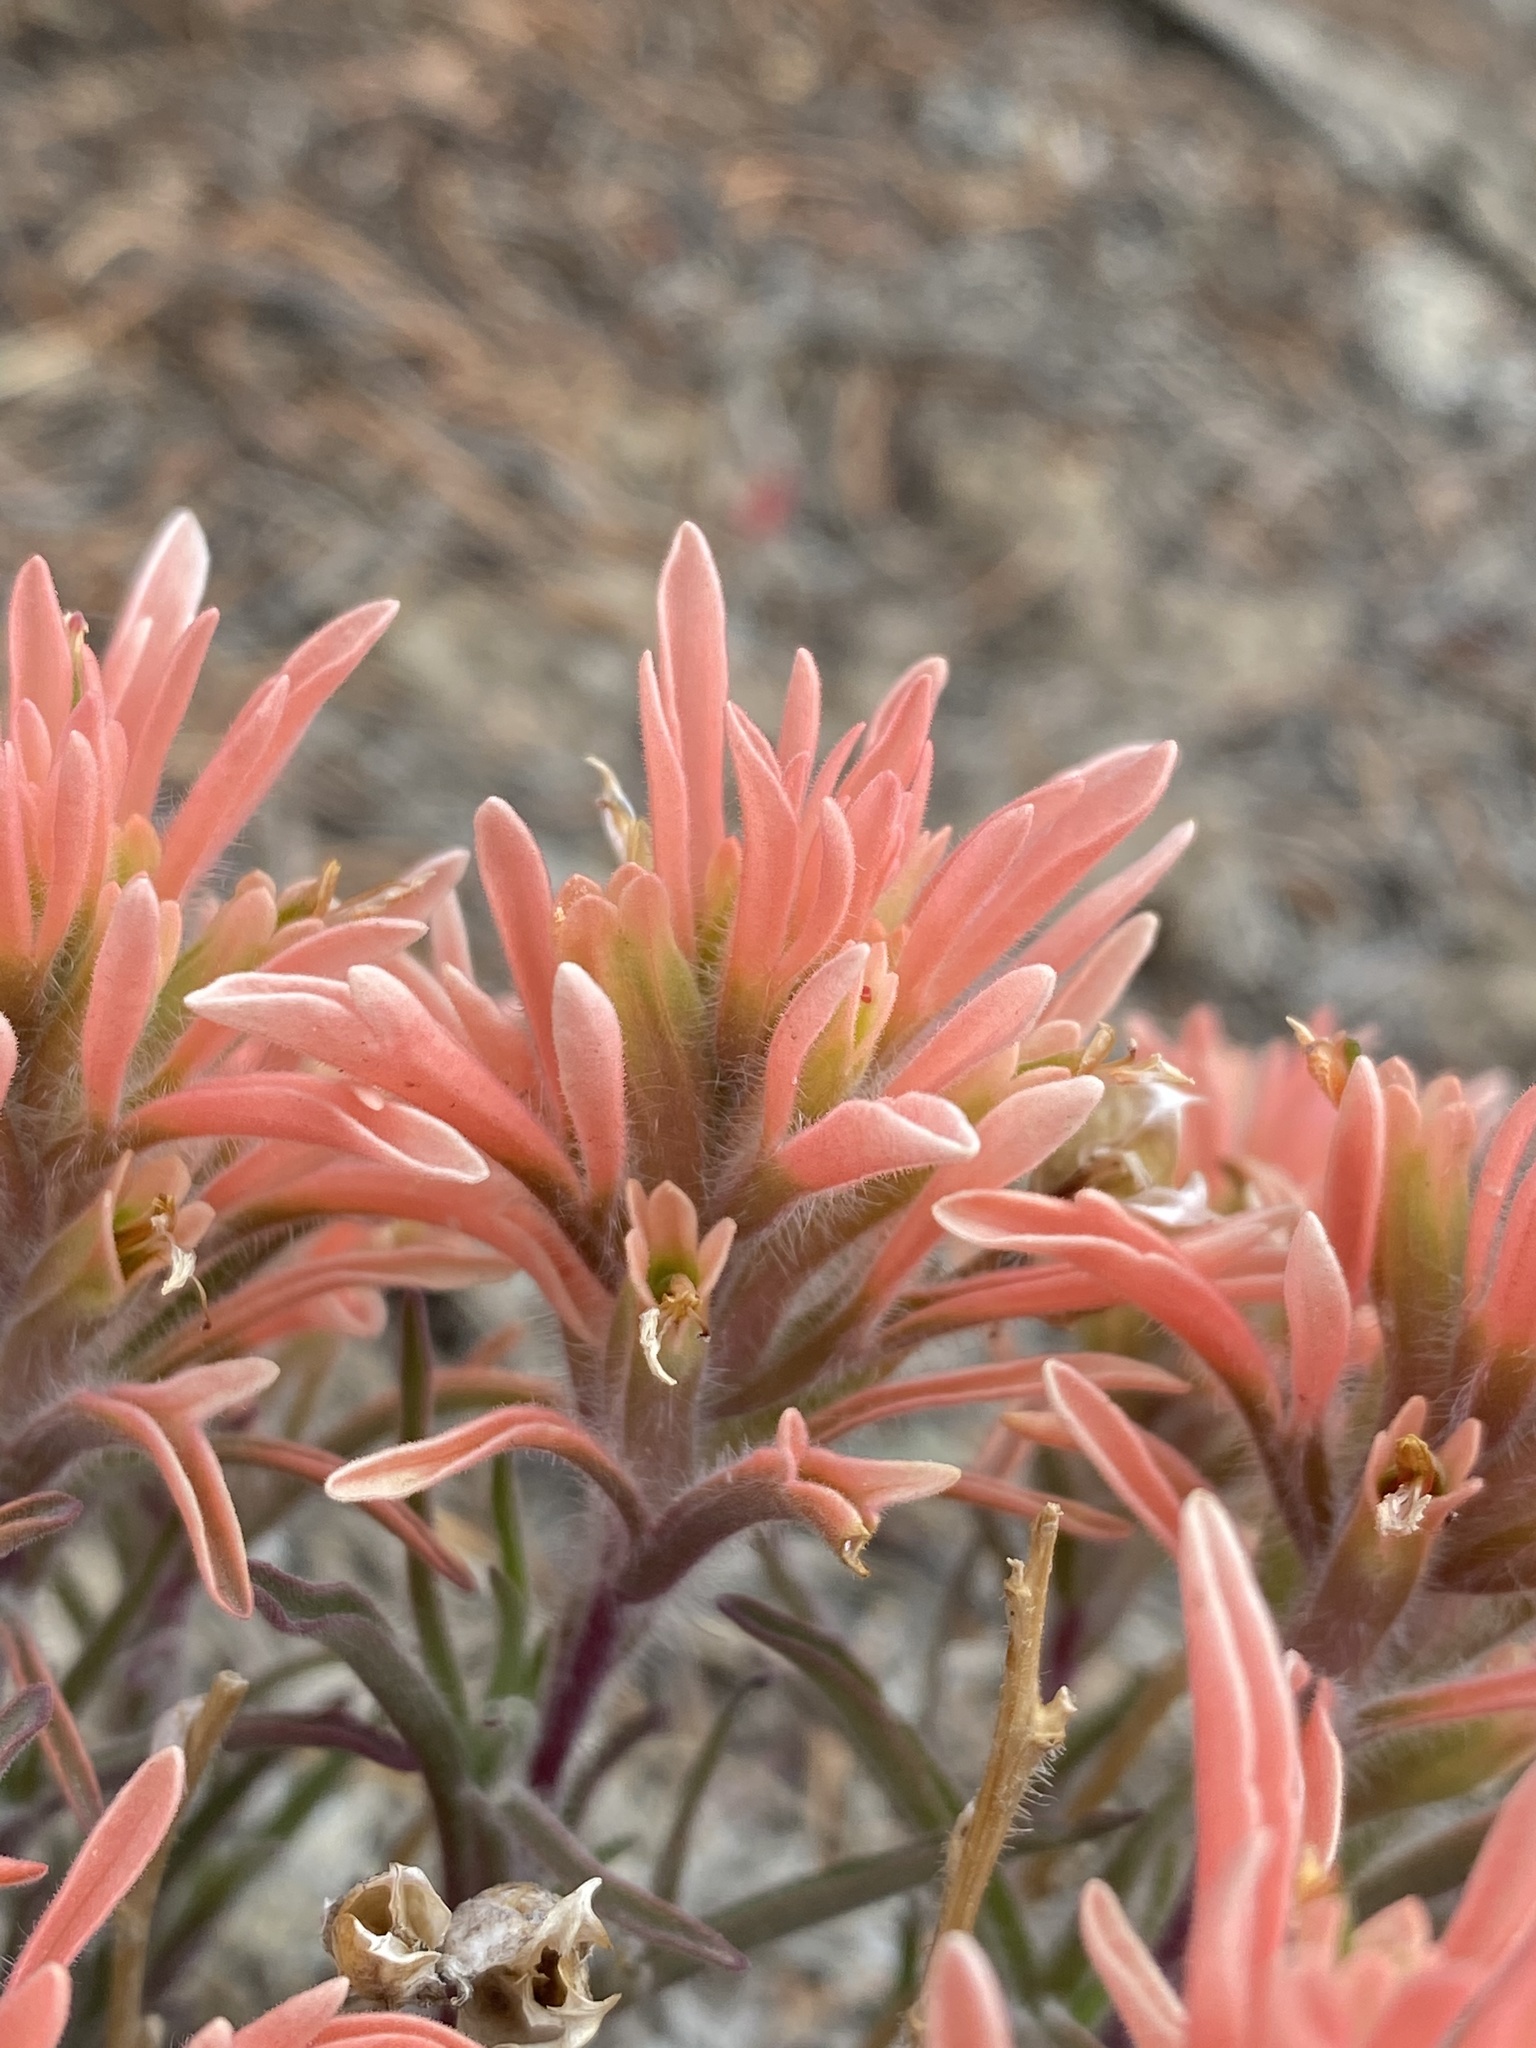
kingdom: Plantae
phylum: Tracheophyta
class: Magnoliopsida
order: Lamiales
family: Orobanchaceae
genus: Castilleja
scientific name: Castilleja angustifolia
